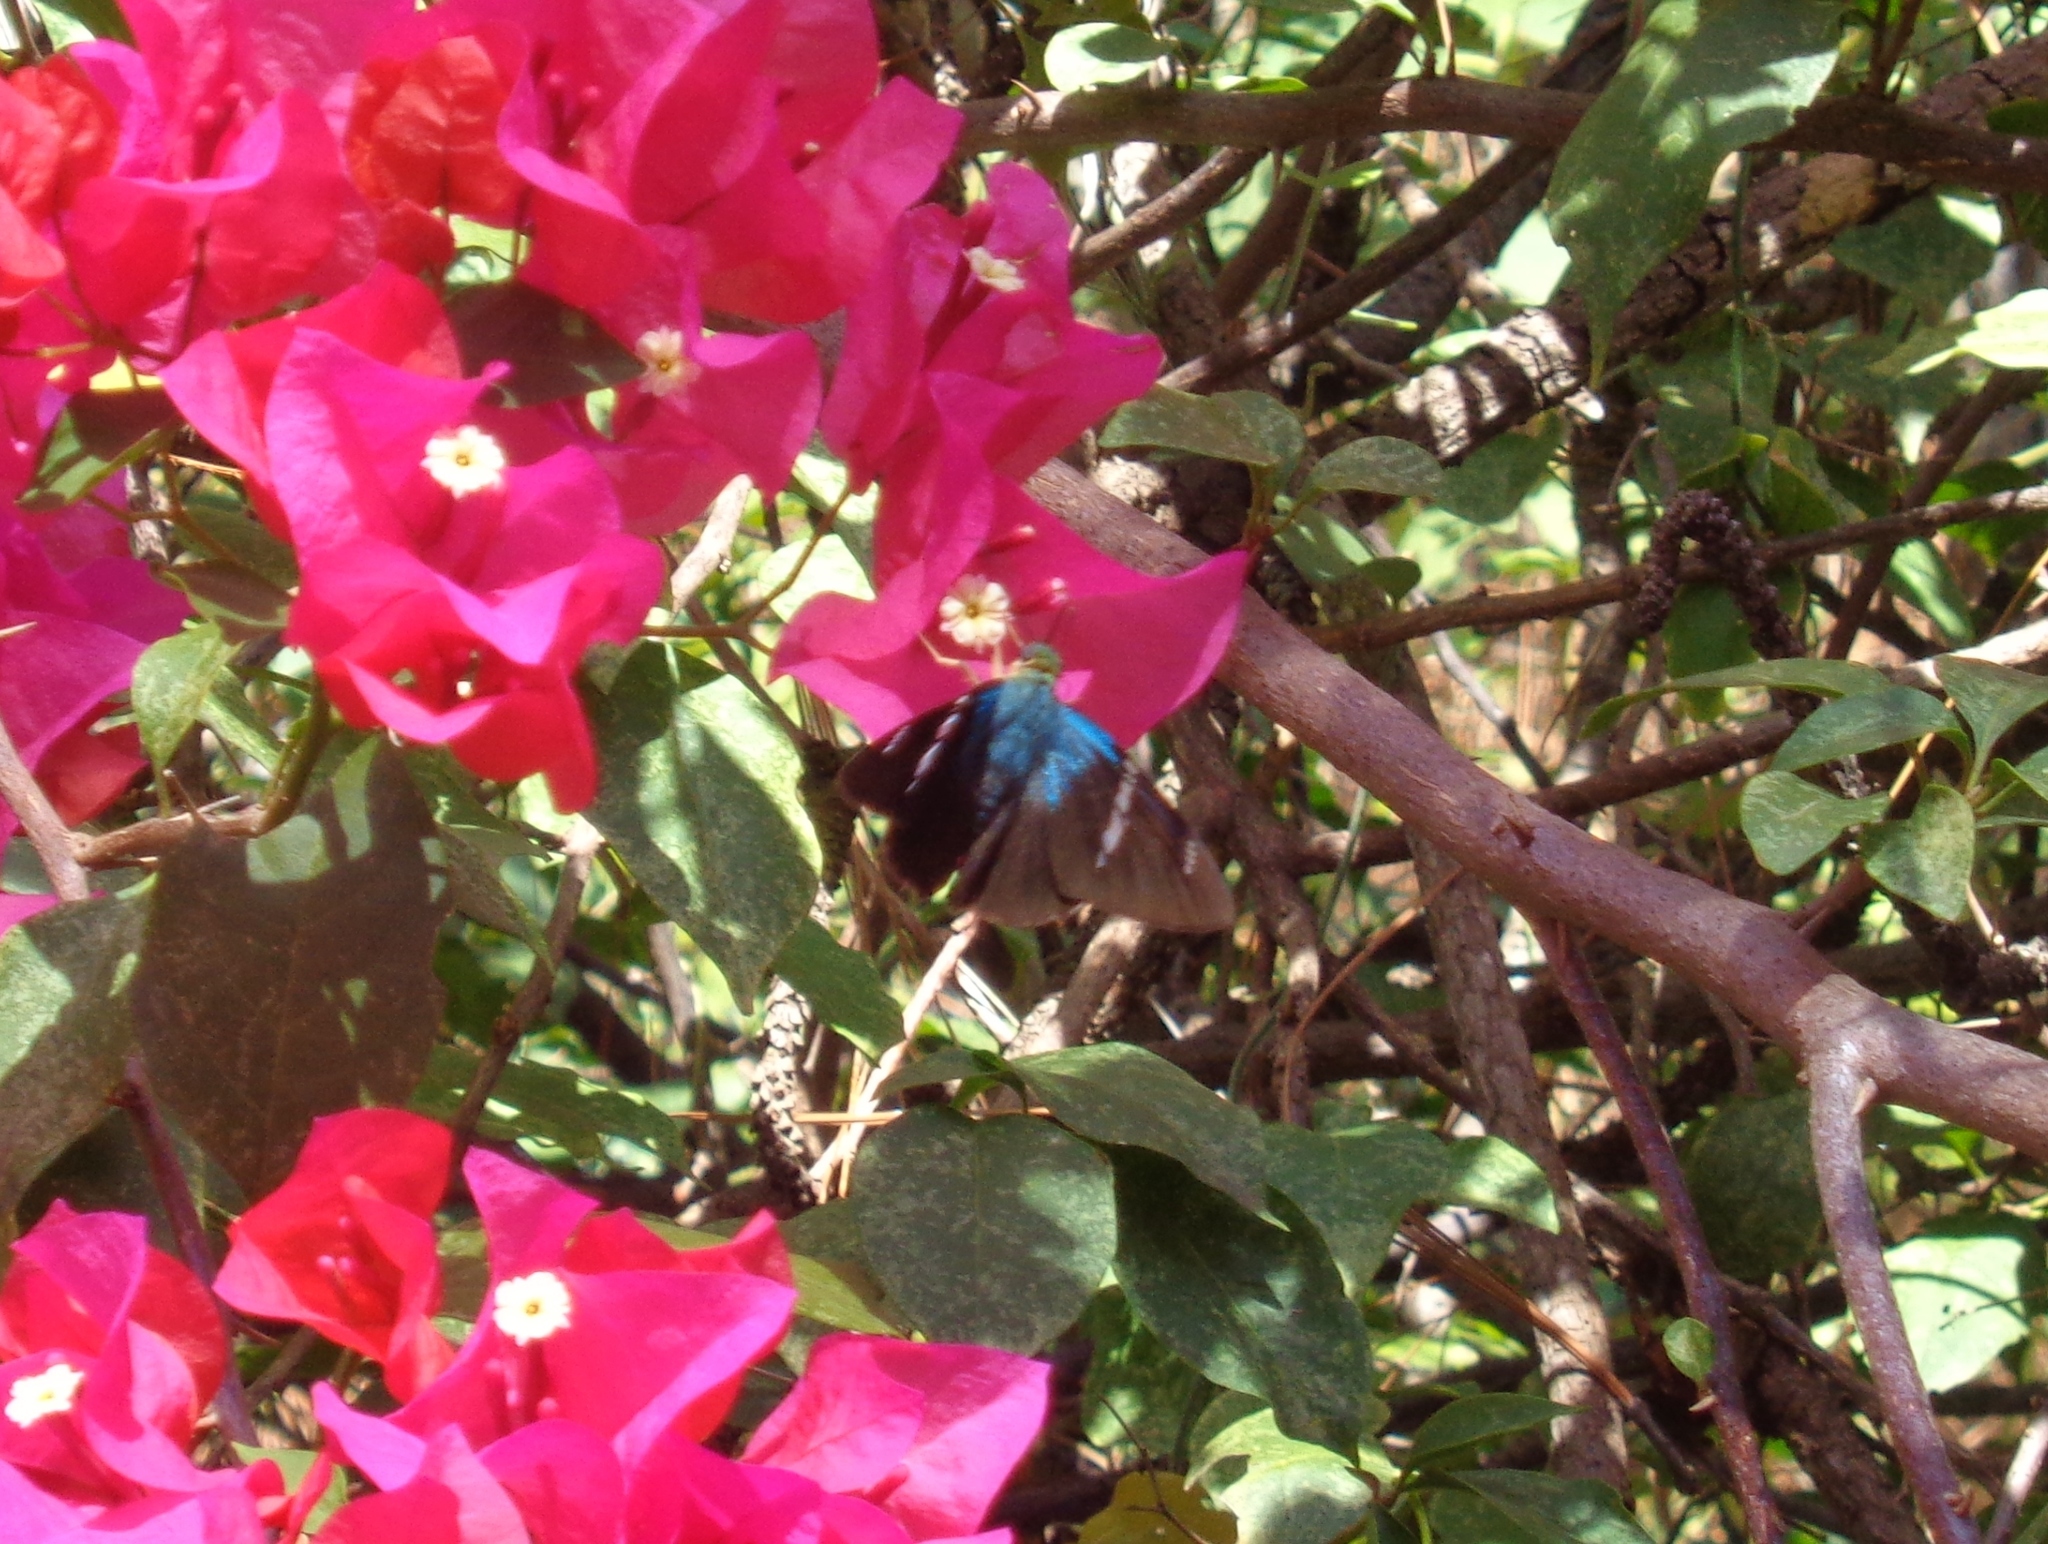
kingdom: Animalia
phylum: Arthropoda
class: Insecta
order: Lepidoptera
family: Hesperiidae
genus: Astraptes
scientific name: Astraptes fulgerator
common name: Two-barred flasher
